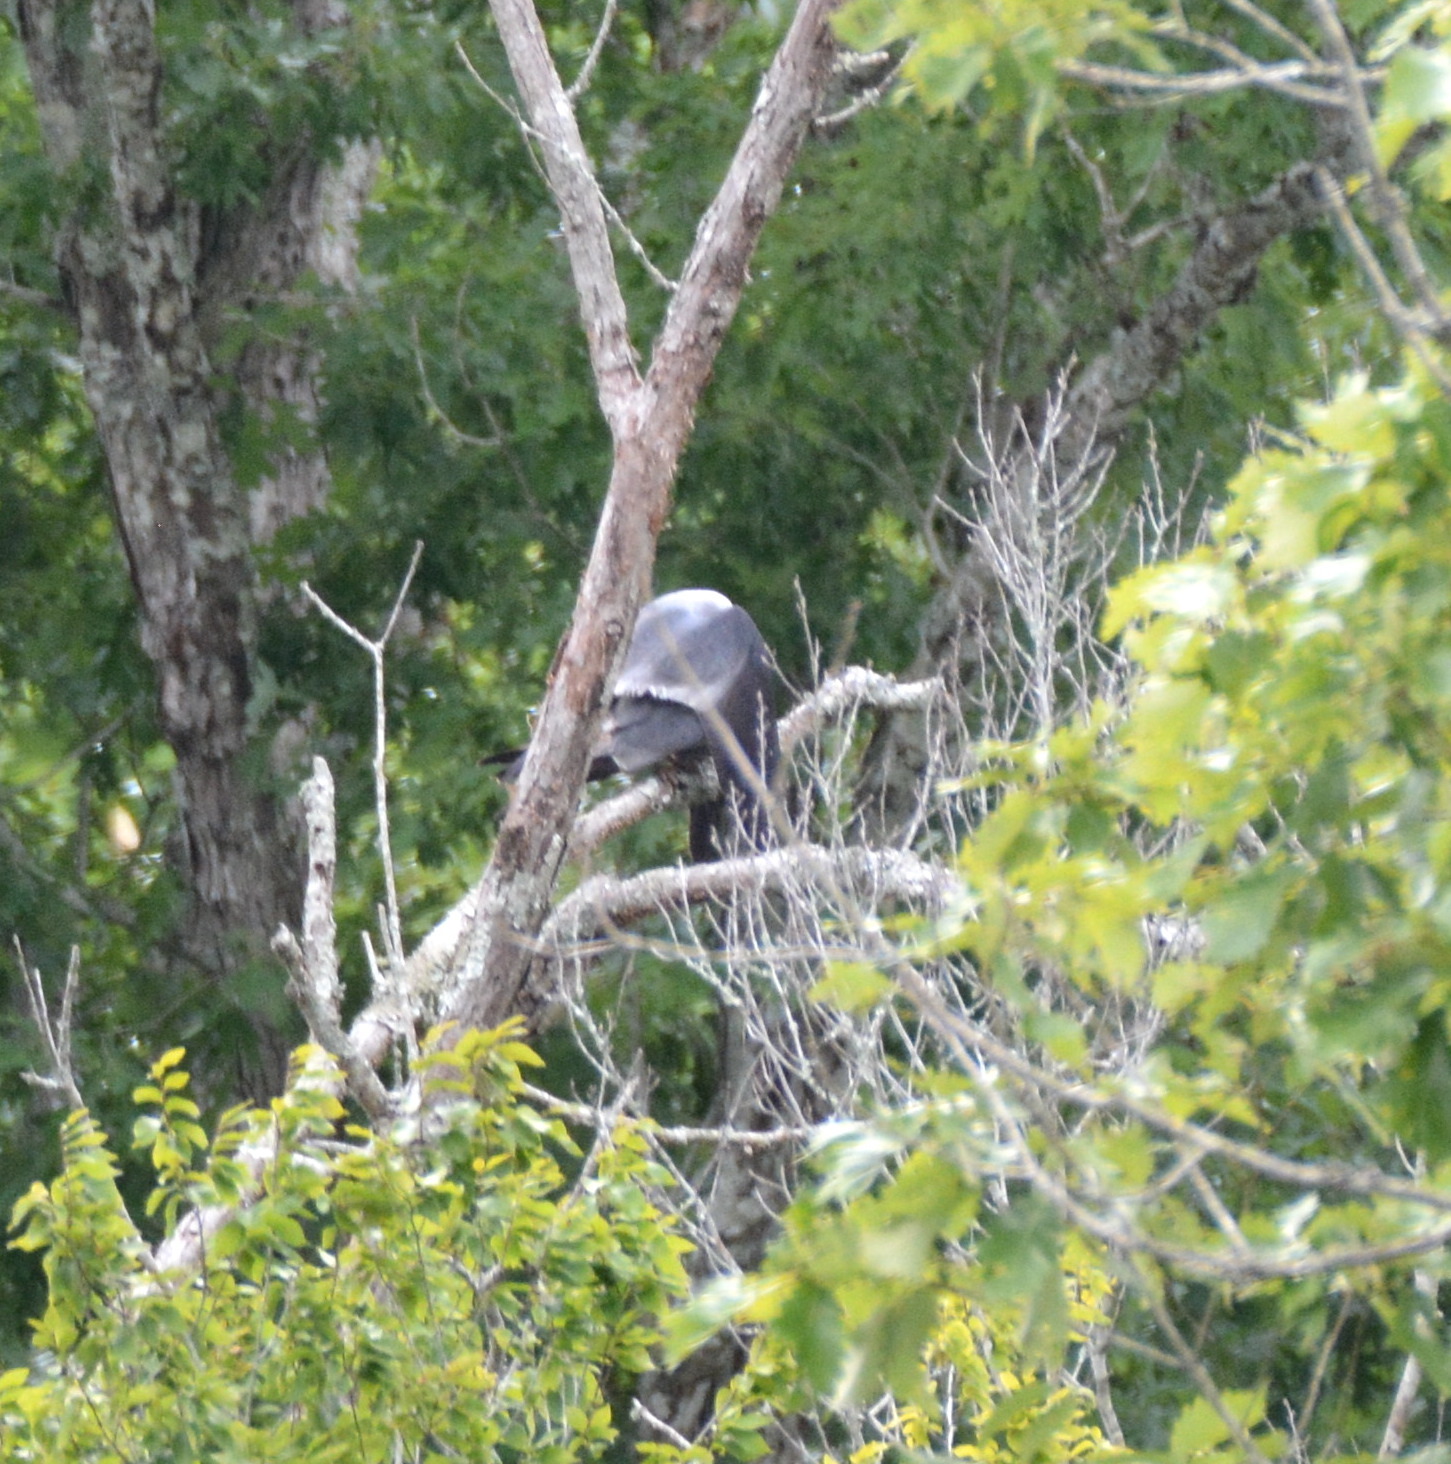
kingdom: Animalia
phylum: Chordata
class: Aves
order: Accipitriformes
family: Accipitridae
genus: Ictinia
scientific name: Ictinia mississippiensis
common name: Mississippi kite
